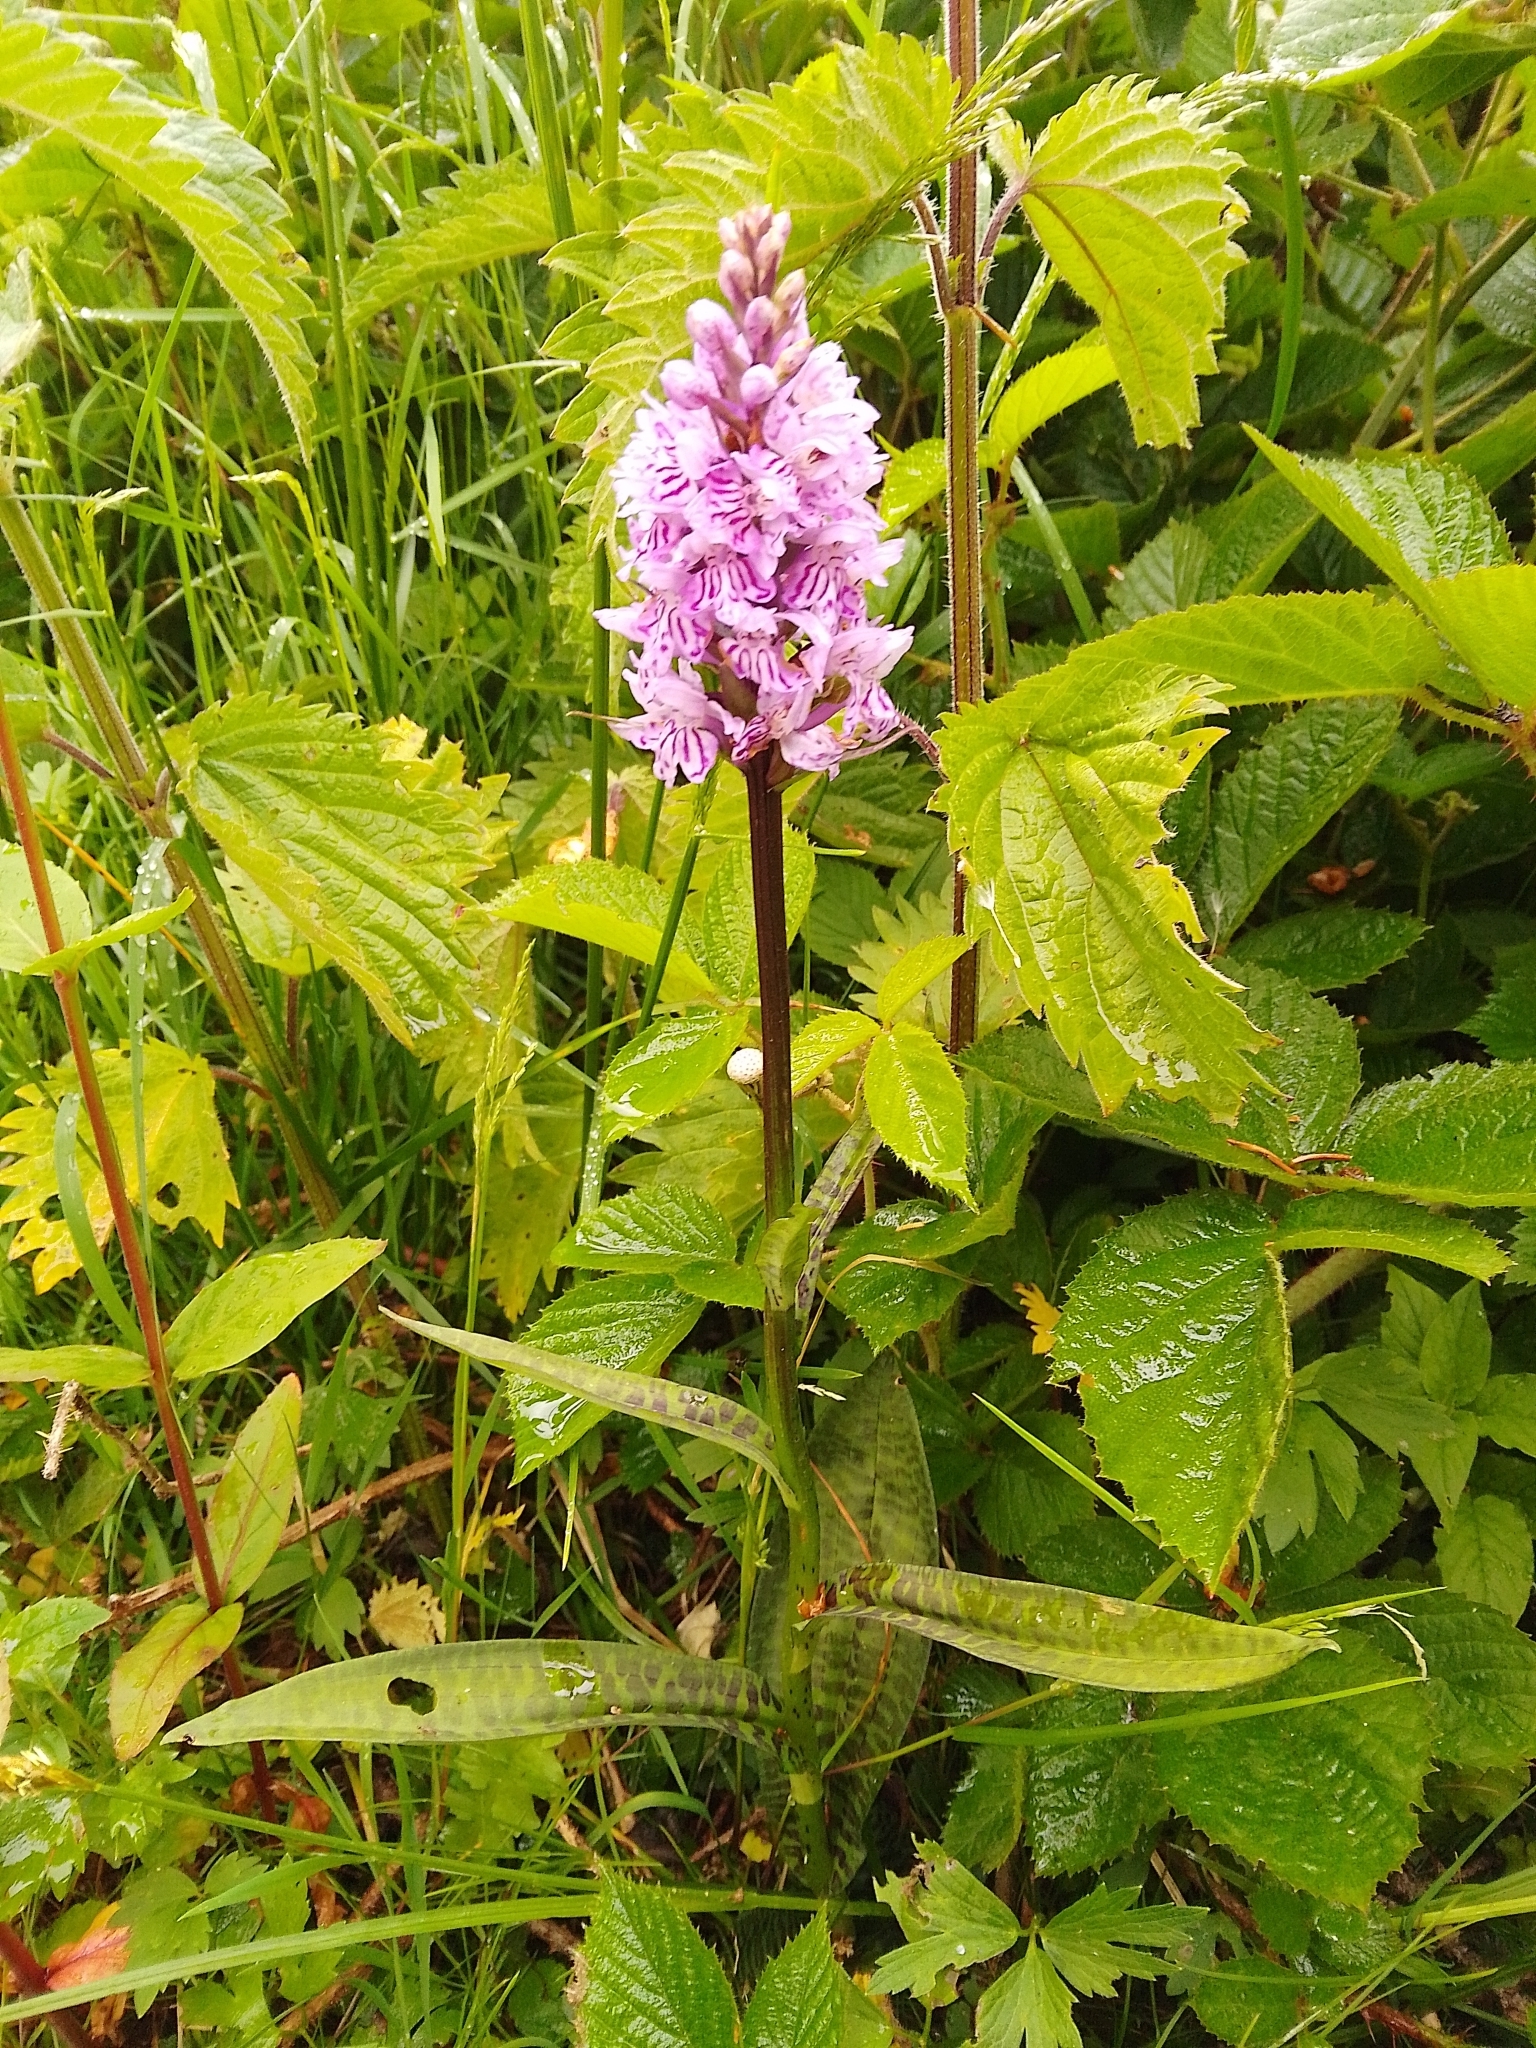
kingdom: Plantae
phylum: Tracheophyta
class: Liliopsida
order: Asparagales
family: Orchidaceae
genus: Dactylorhiza
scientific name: Dactylorhiza maculata
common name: Heath spotted-orchid
